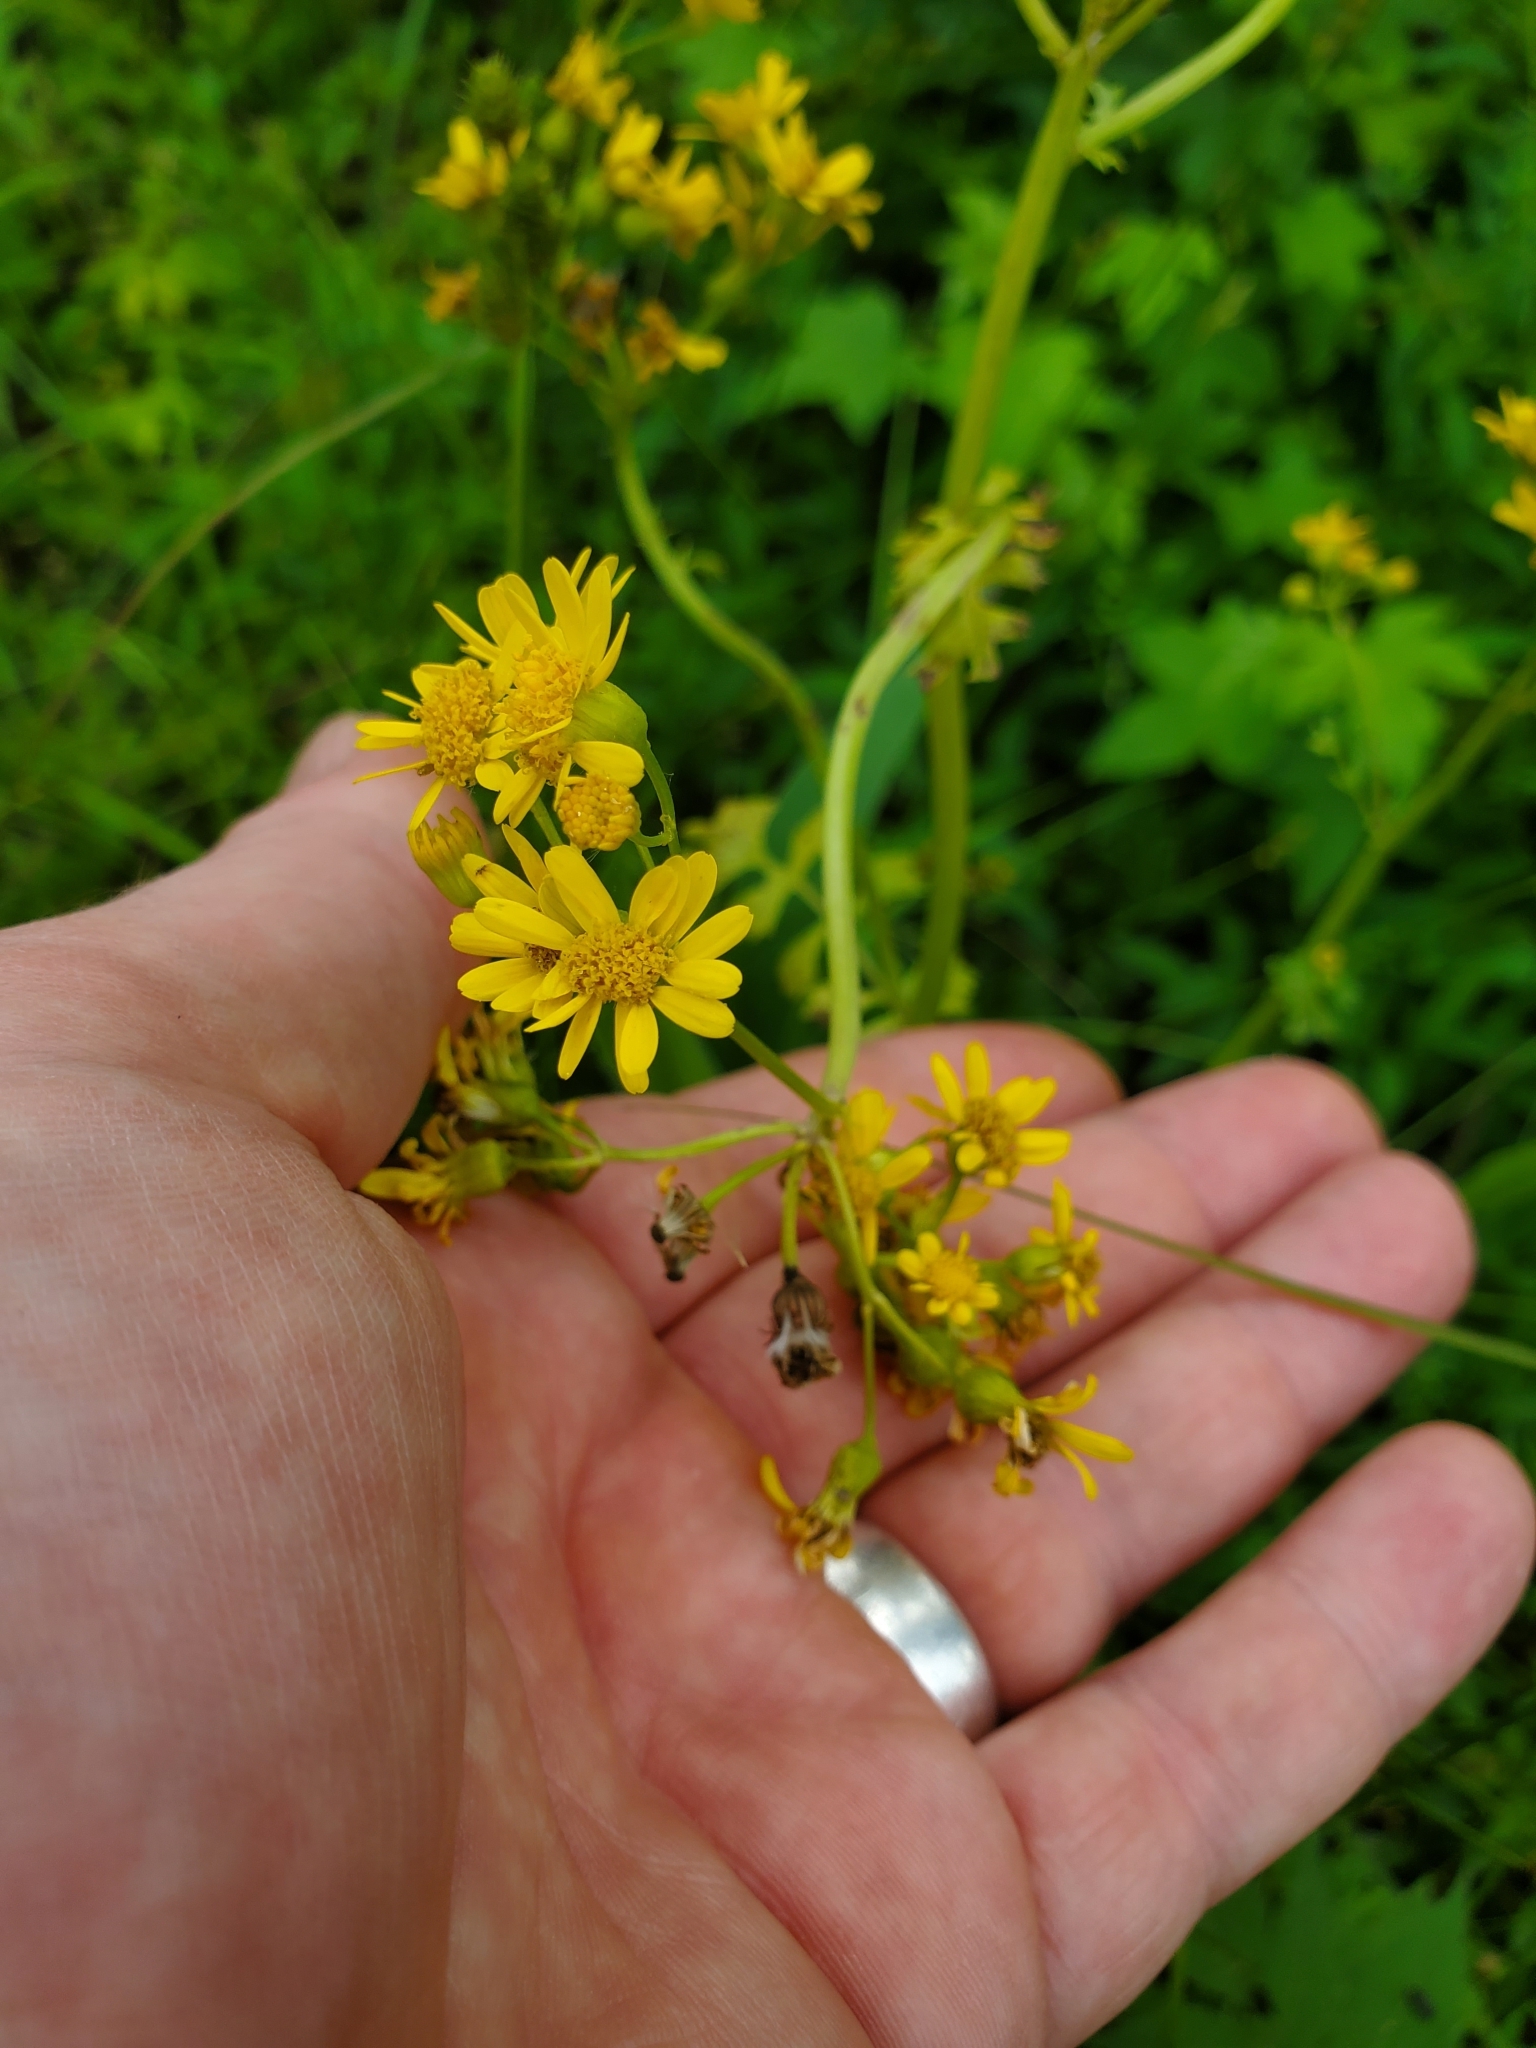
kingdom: Plantae
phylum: Tracheophyta
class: Magnoliopsida
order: Asterales
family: Asteraceae
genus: Packera
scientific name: Packera glabella
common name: Butterweed
